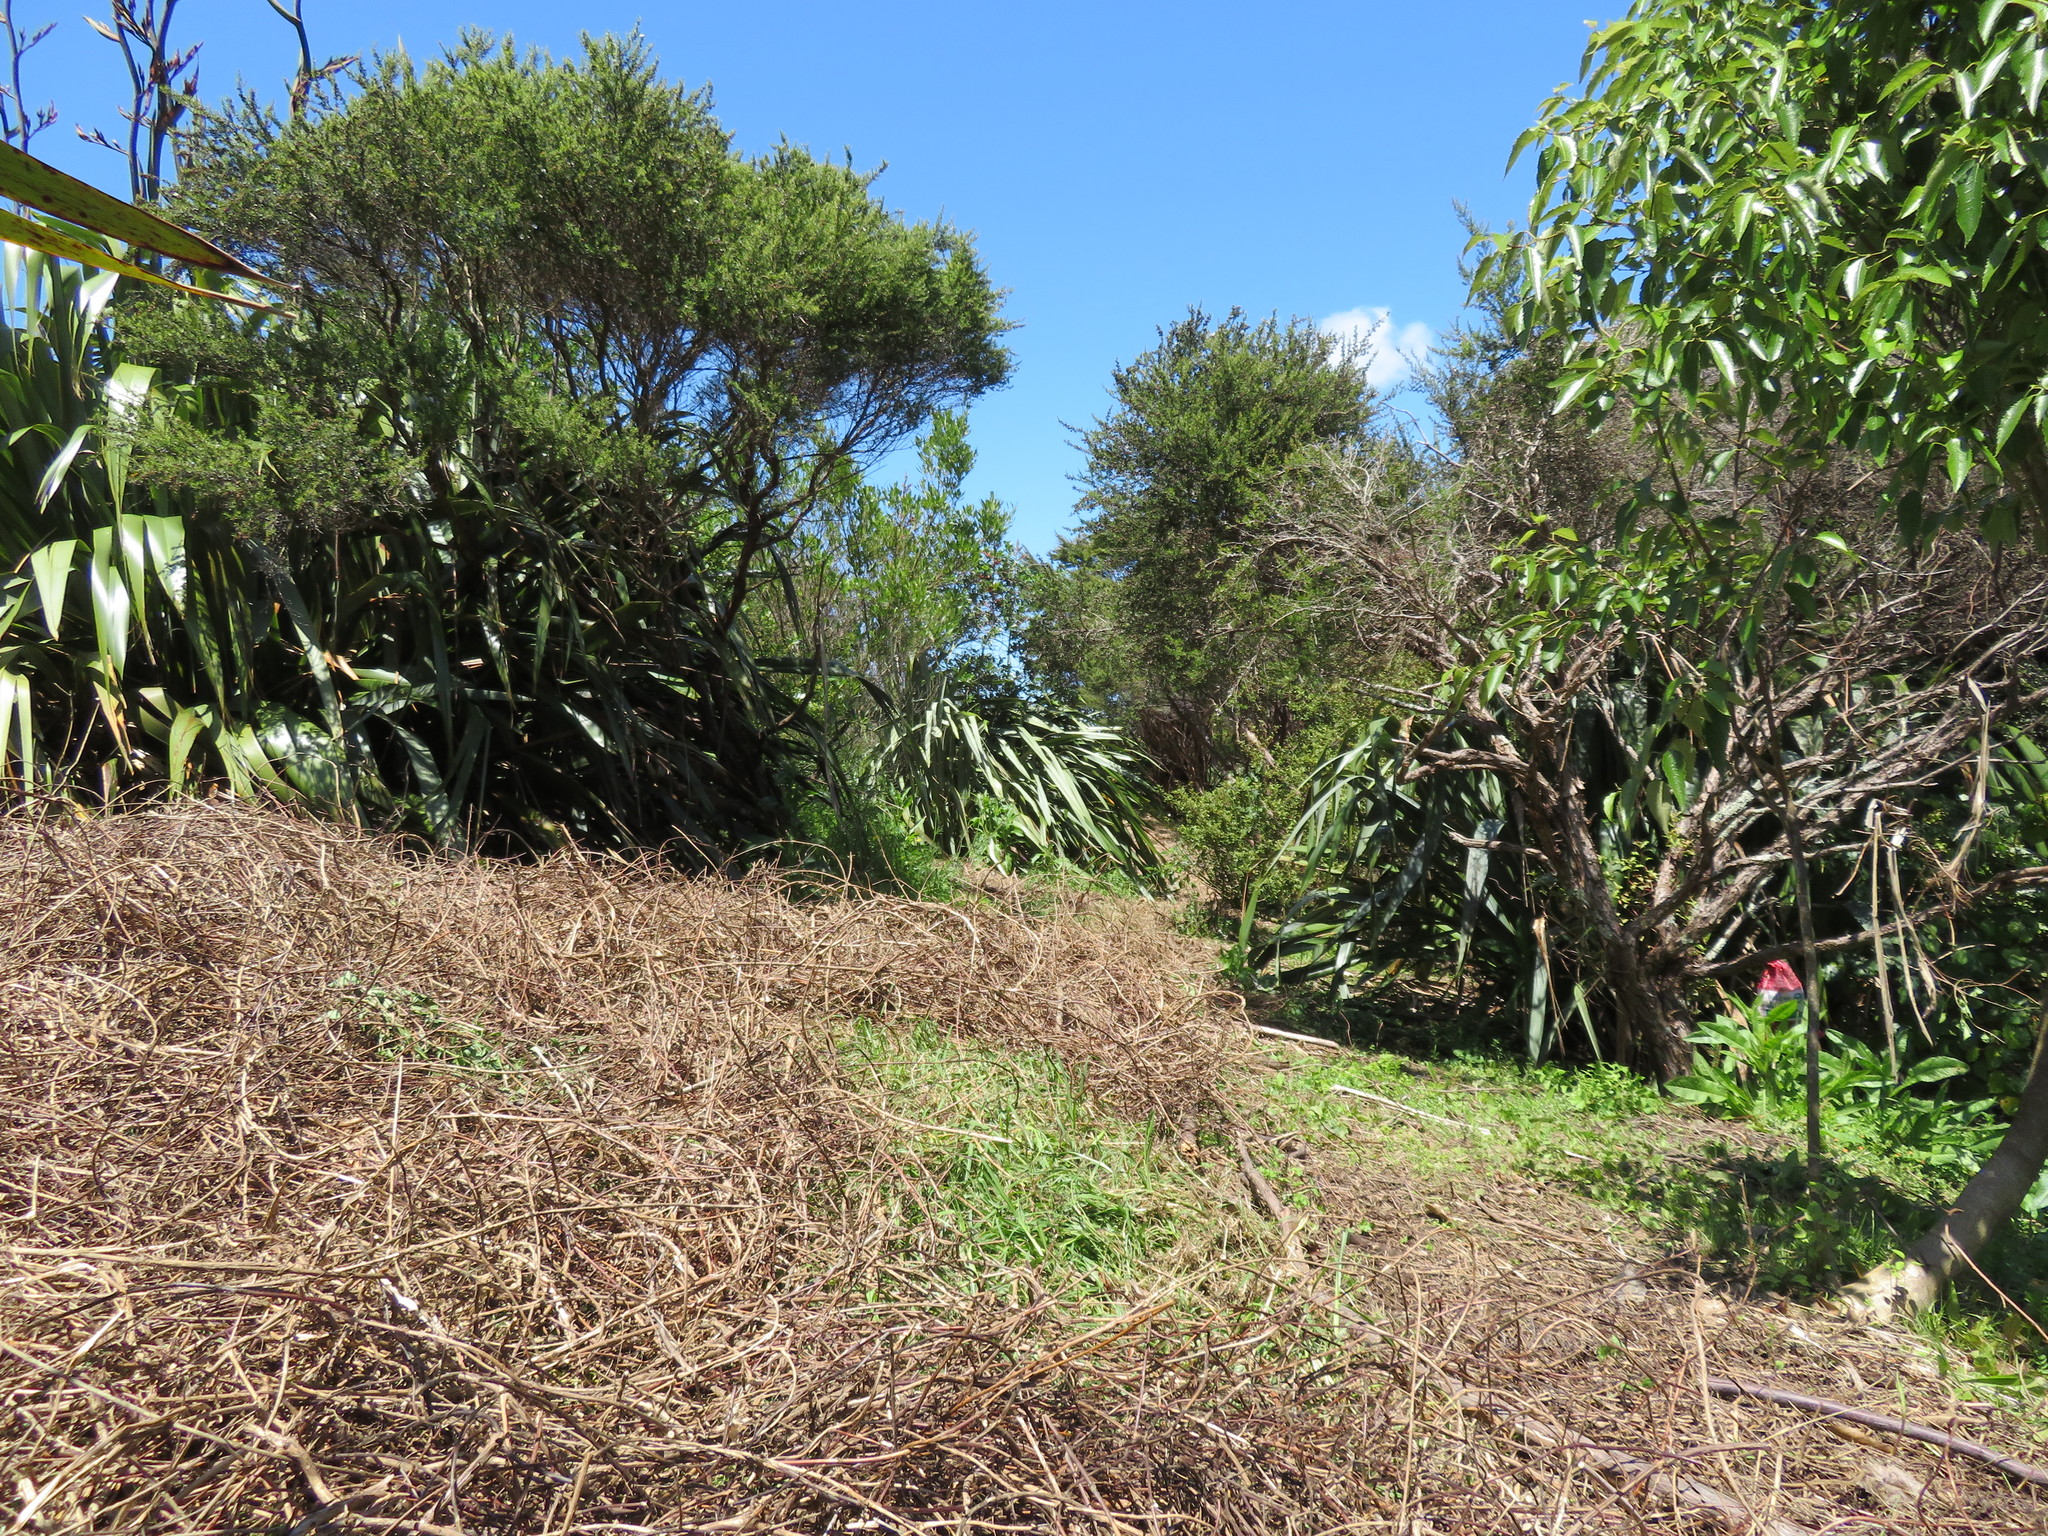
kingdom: Plantae
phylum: Tracheophyta
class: Liliopsida
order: Poales
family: Poaceae
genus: Cenchrus
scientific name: Cenchrus clandestinus
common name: Kikuyugrass
